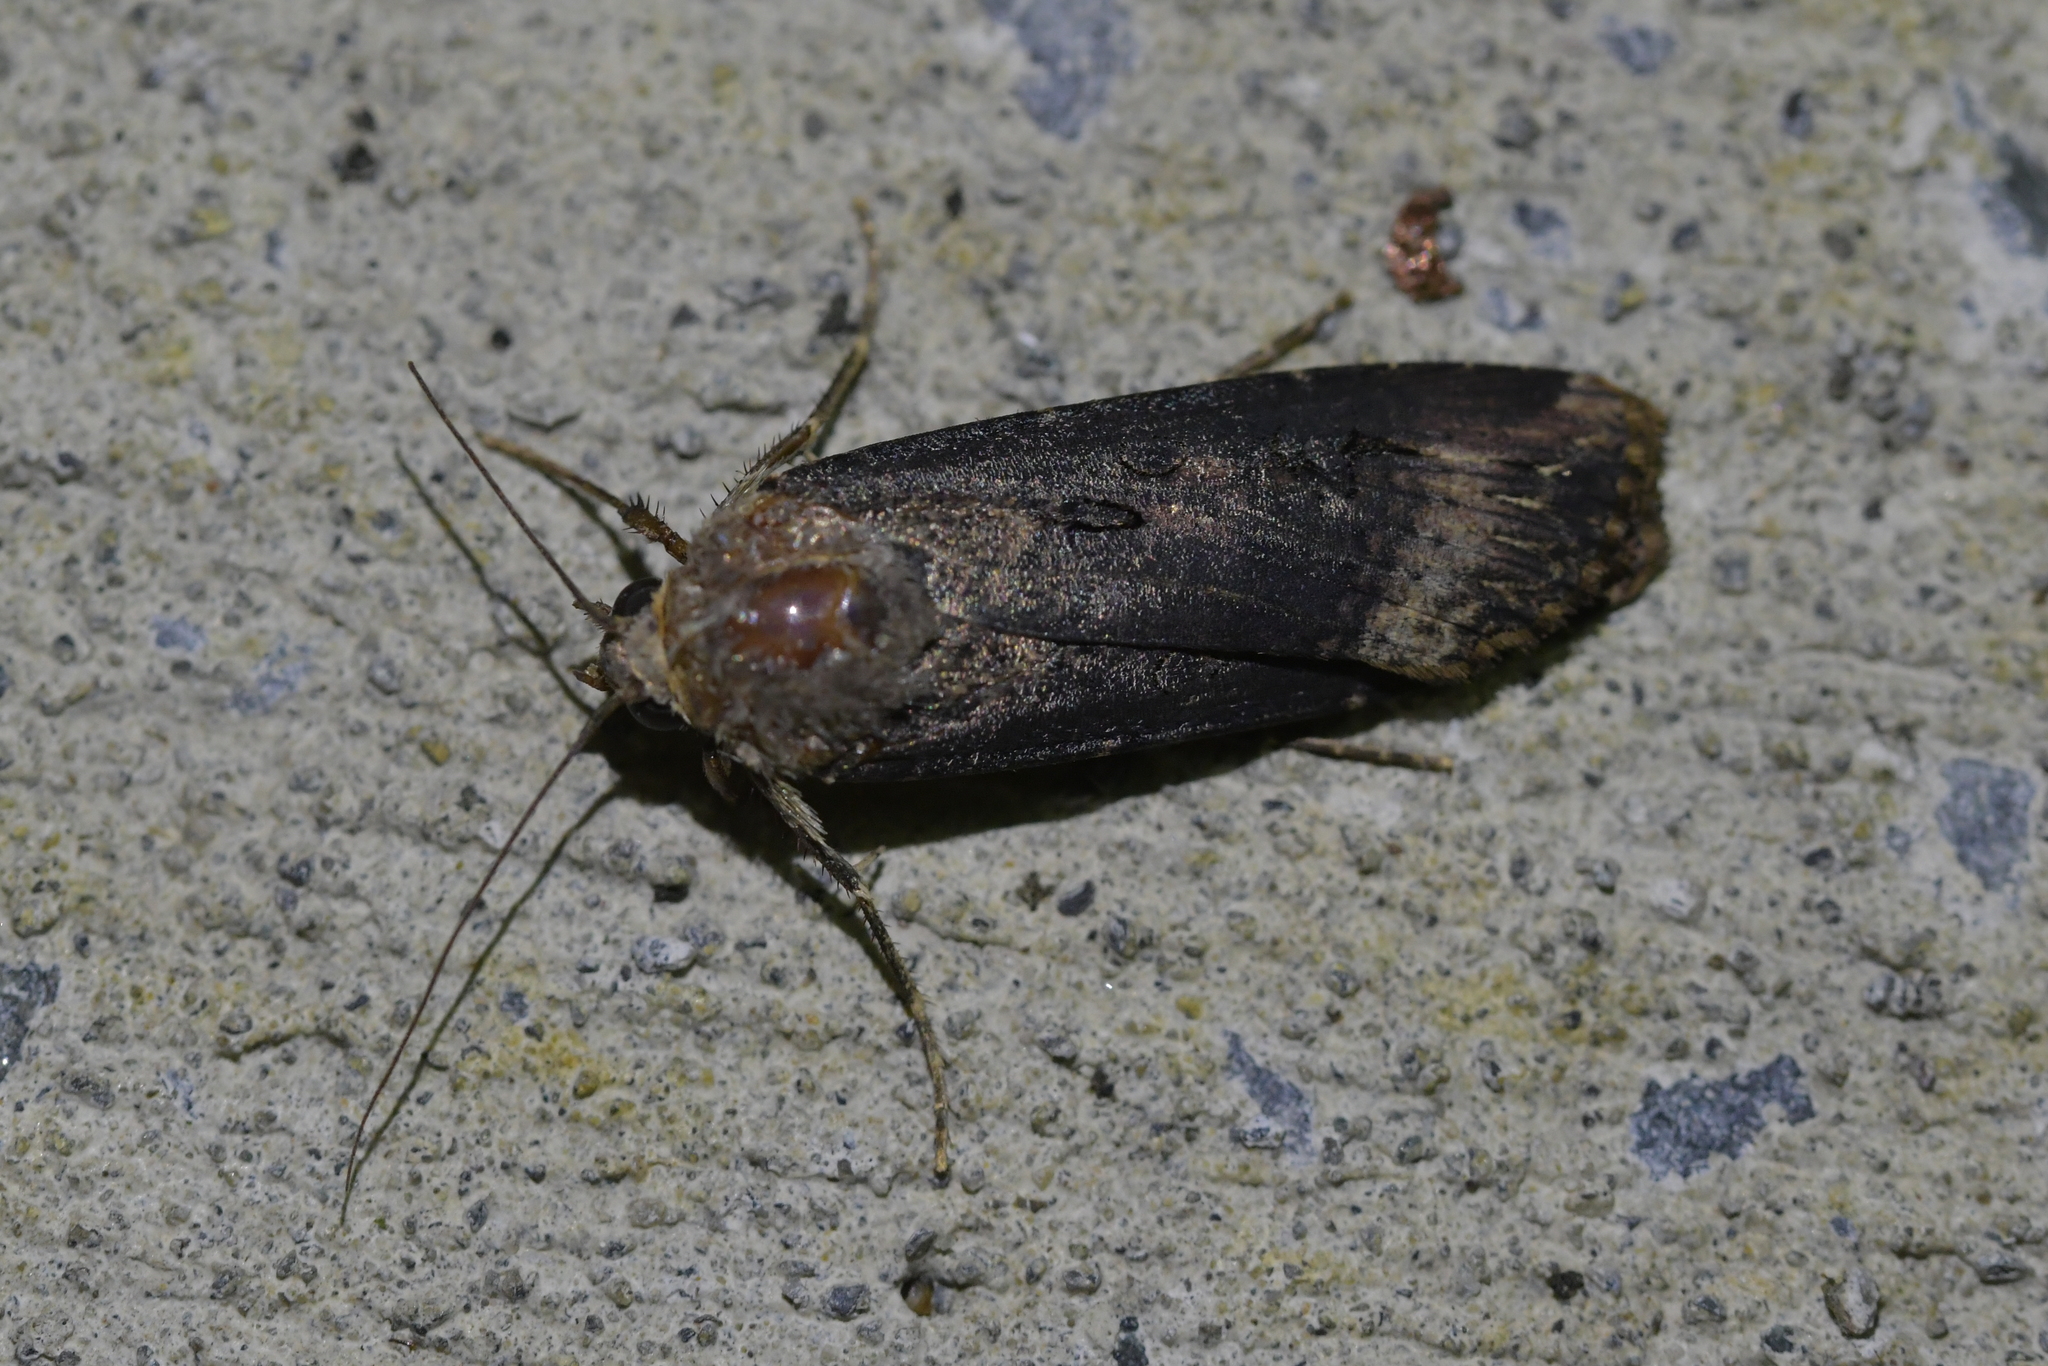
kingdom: Animalia
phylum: Arthropoda
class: Insecta
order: Lepidoptera
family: Noctuidae
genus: Agrotis
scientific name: Agrotis ipsilon
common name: Dark sword-grass
